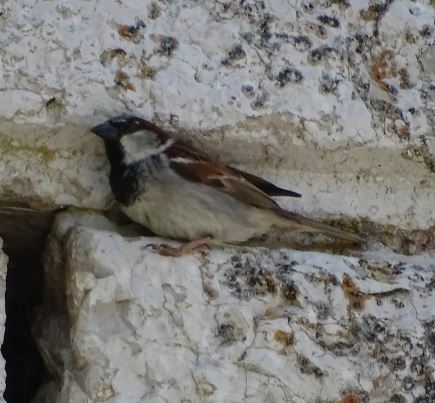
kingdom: Animalia
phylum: Chordata
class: Aves
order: Passeriformes
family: Passeridae
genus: Passer
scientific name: Passer domesticus
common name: House sparrow
